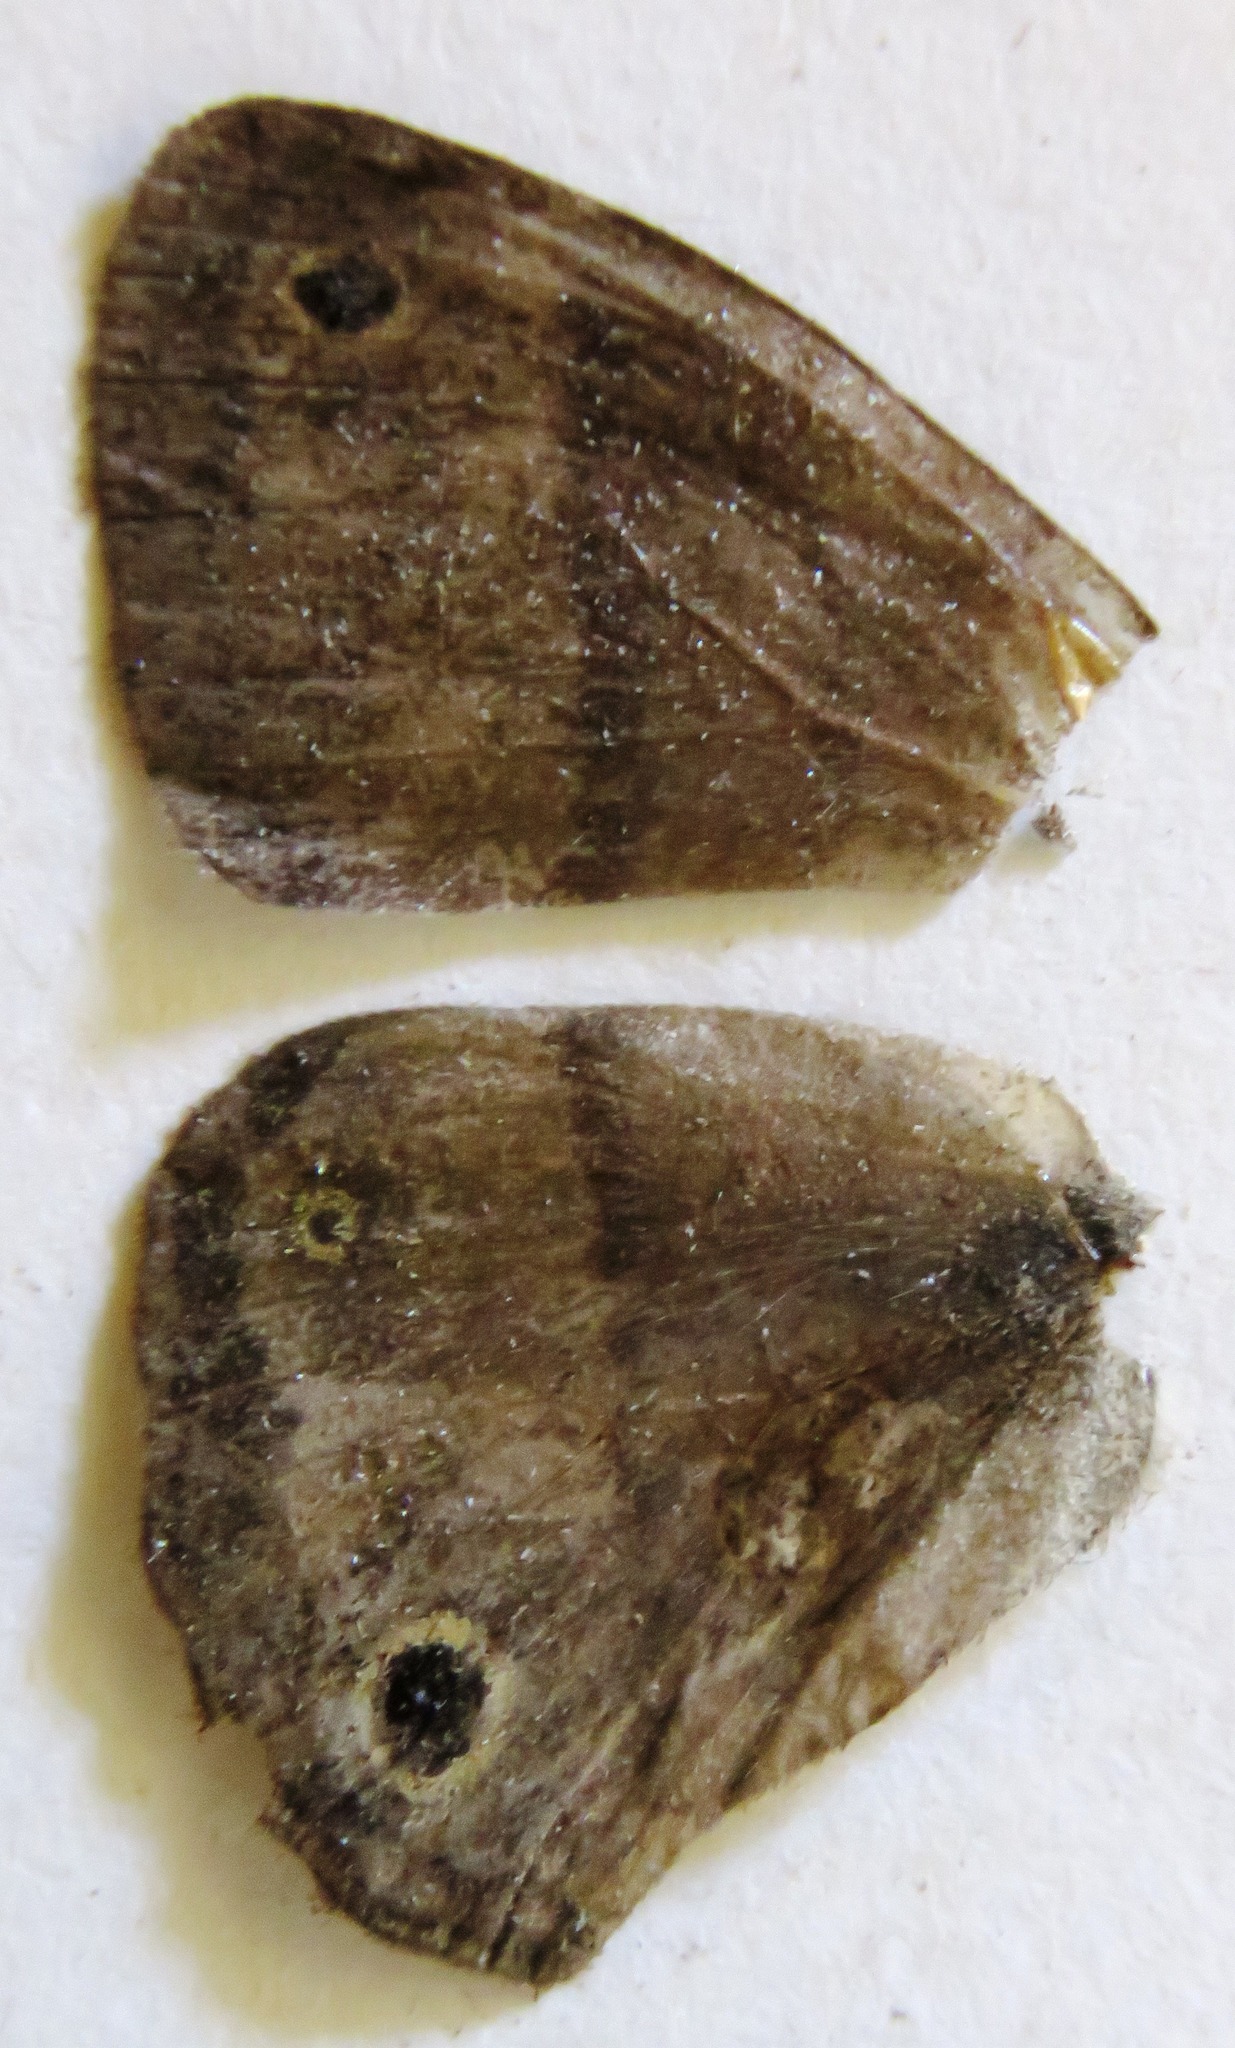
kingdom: Animalia
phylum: Arthropoda
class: Insecta
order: Lepidoptera
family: Nymphalidae
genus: Paryphthimoides
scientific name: Paryphthimoides
